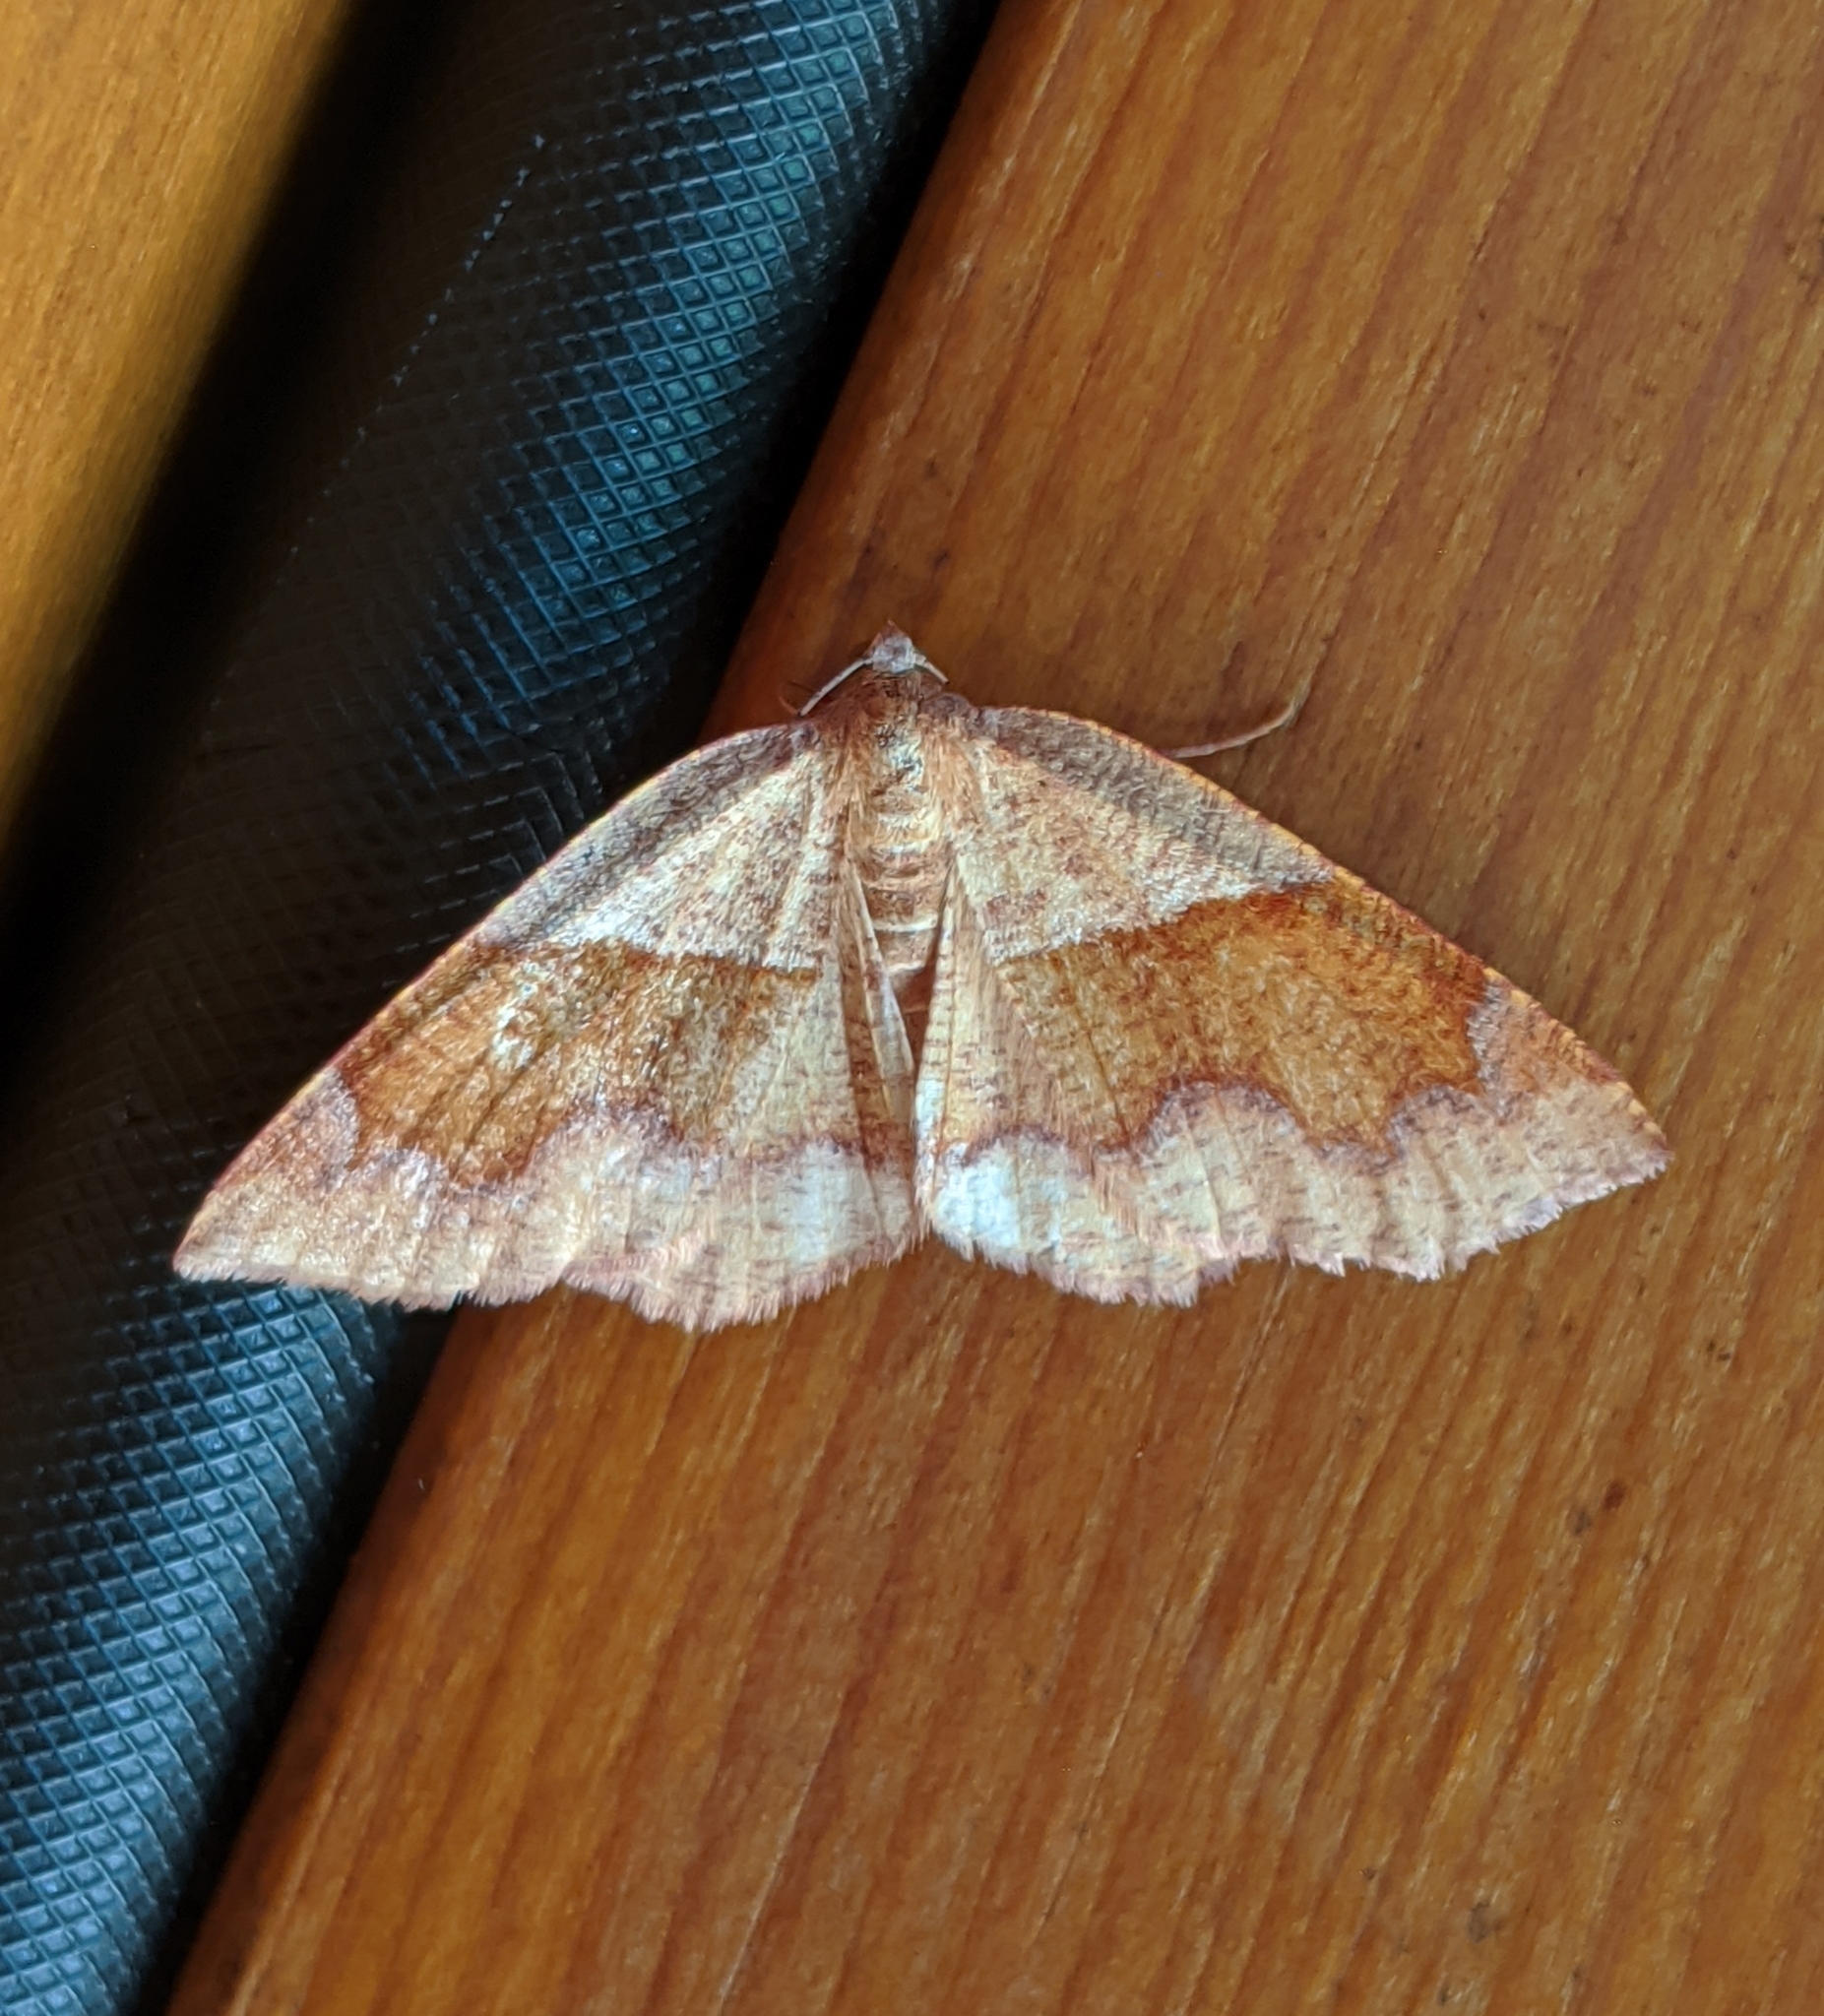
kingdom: Animalia
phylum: Arthropoda
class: Insecta
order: Lepidoptera
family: Geometridae
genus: Plagodis
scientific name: Plagodis pulveraria
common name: Barred umber
